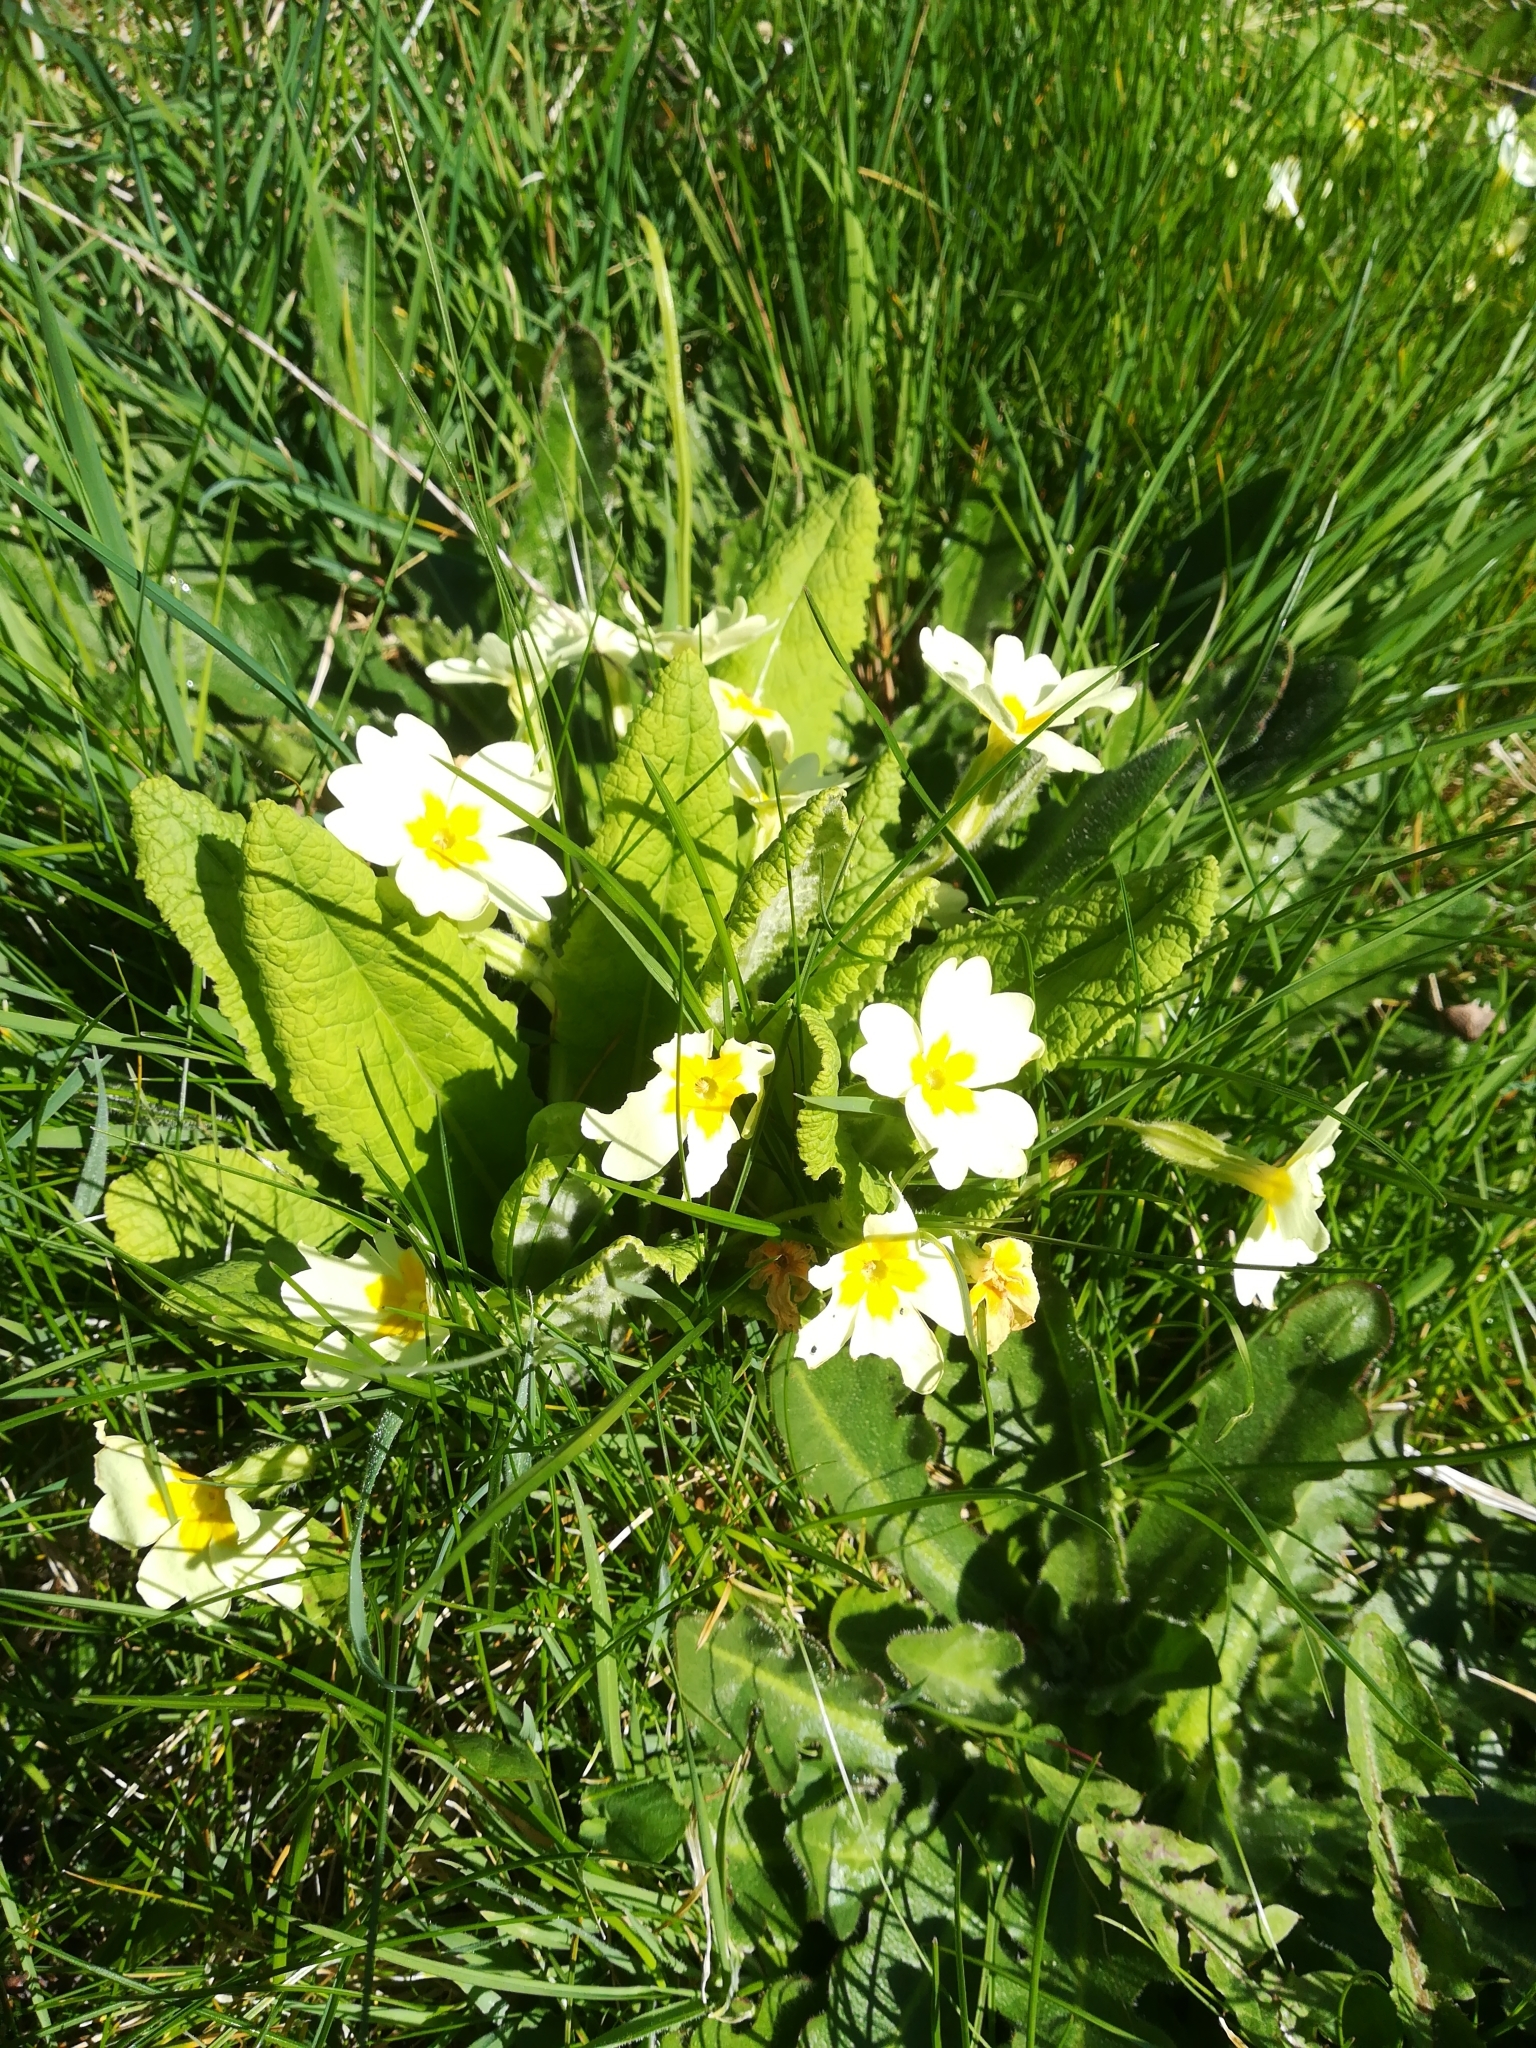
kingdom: Plantae
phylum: Tracheophyta
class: Magnoliopsida
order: Ericales
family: Primulaceae
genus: Primula
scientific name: Primula vulgaris
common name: Primrose
